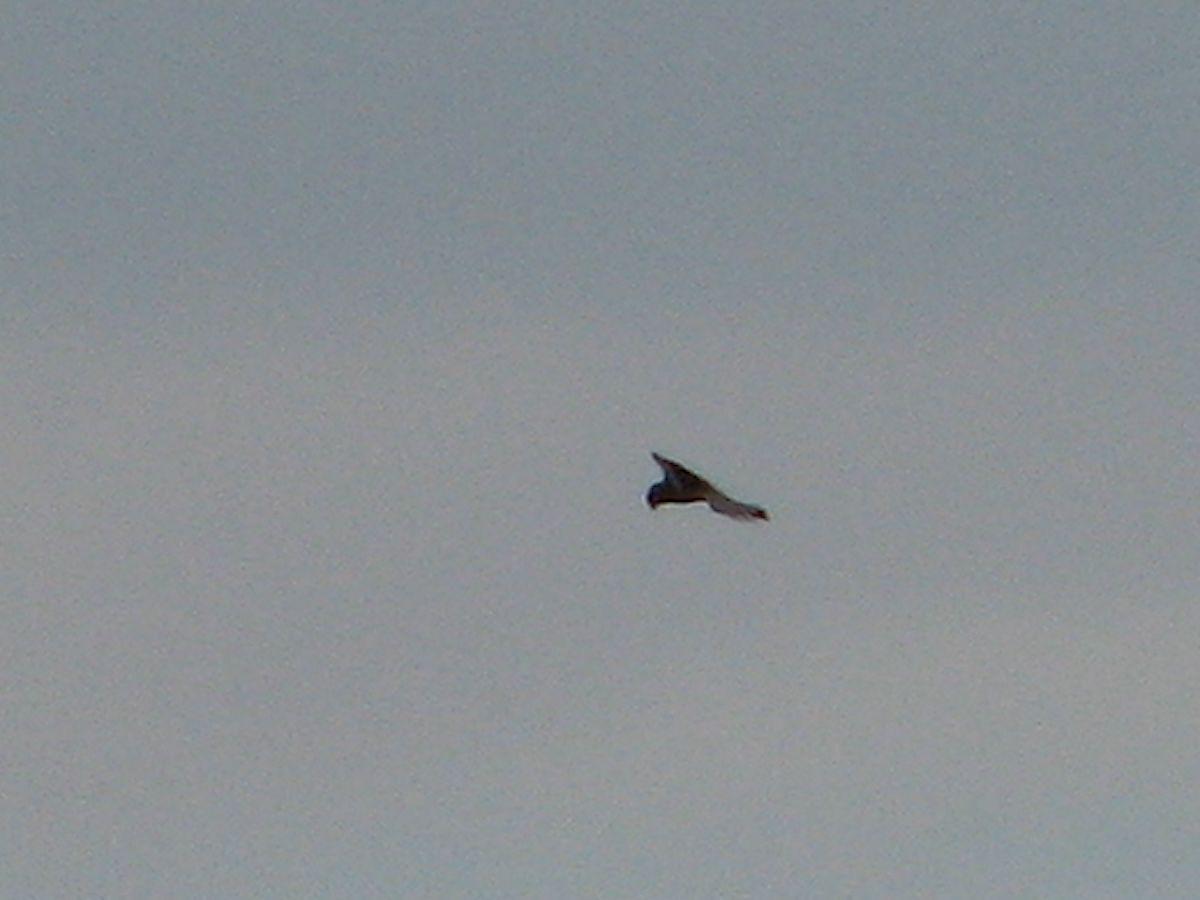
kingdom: Animalia
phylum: Chordata
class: Aves
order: Falconiformes
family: Falconidae
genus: Falco
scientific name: Falco tinnunculus
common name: Common kestrel
